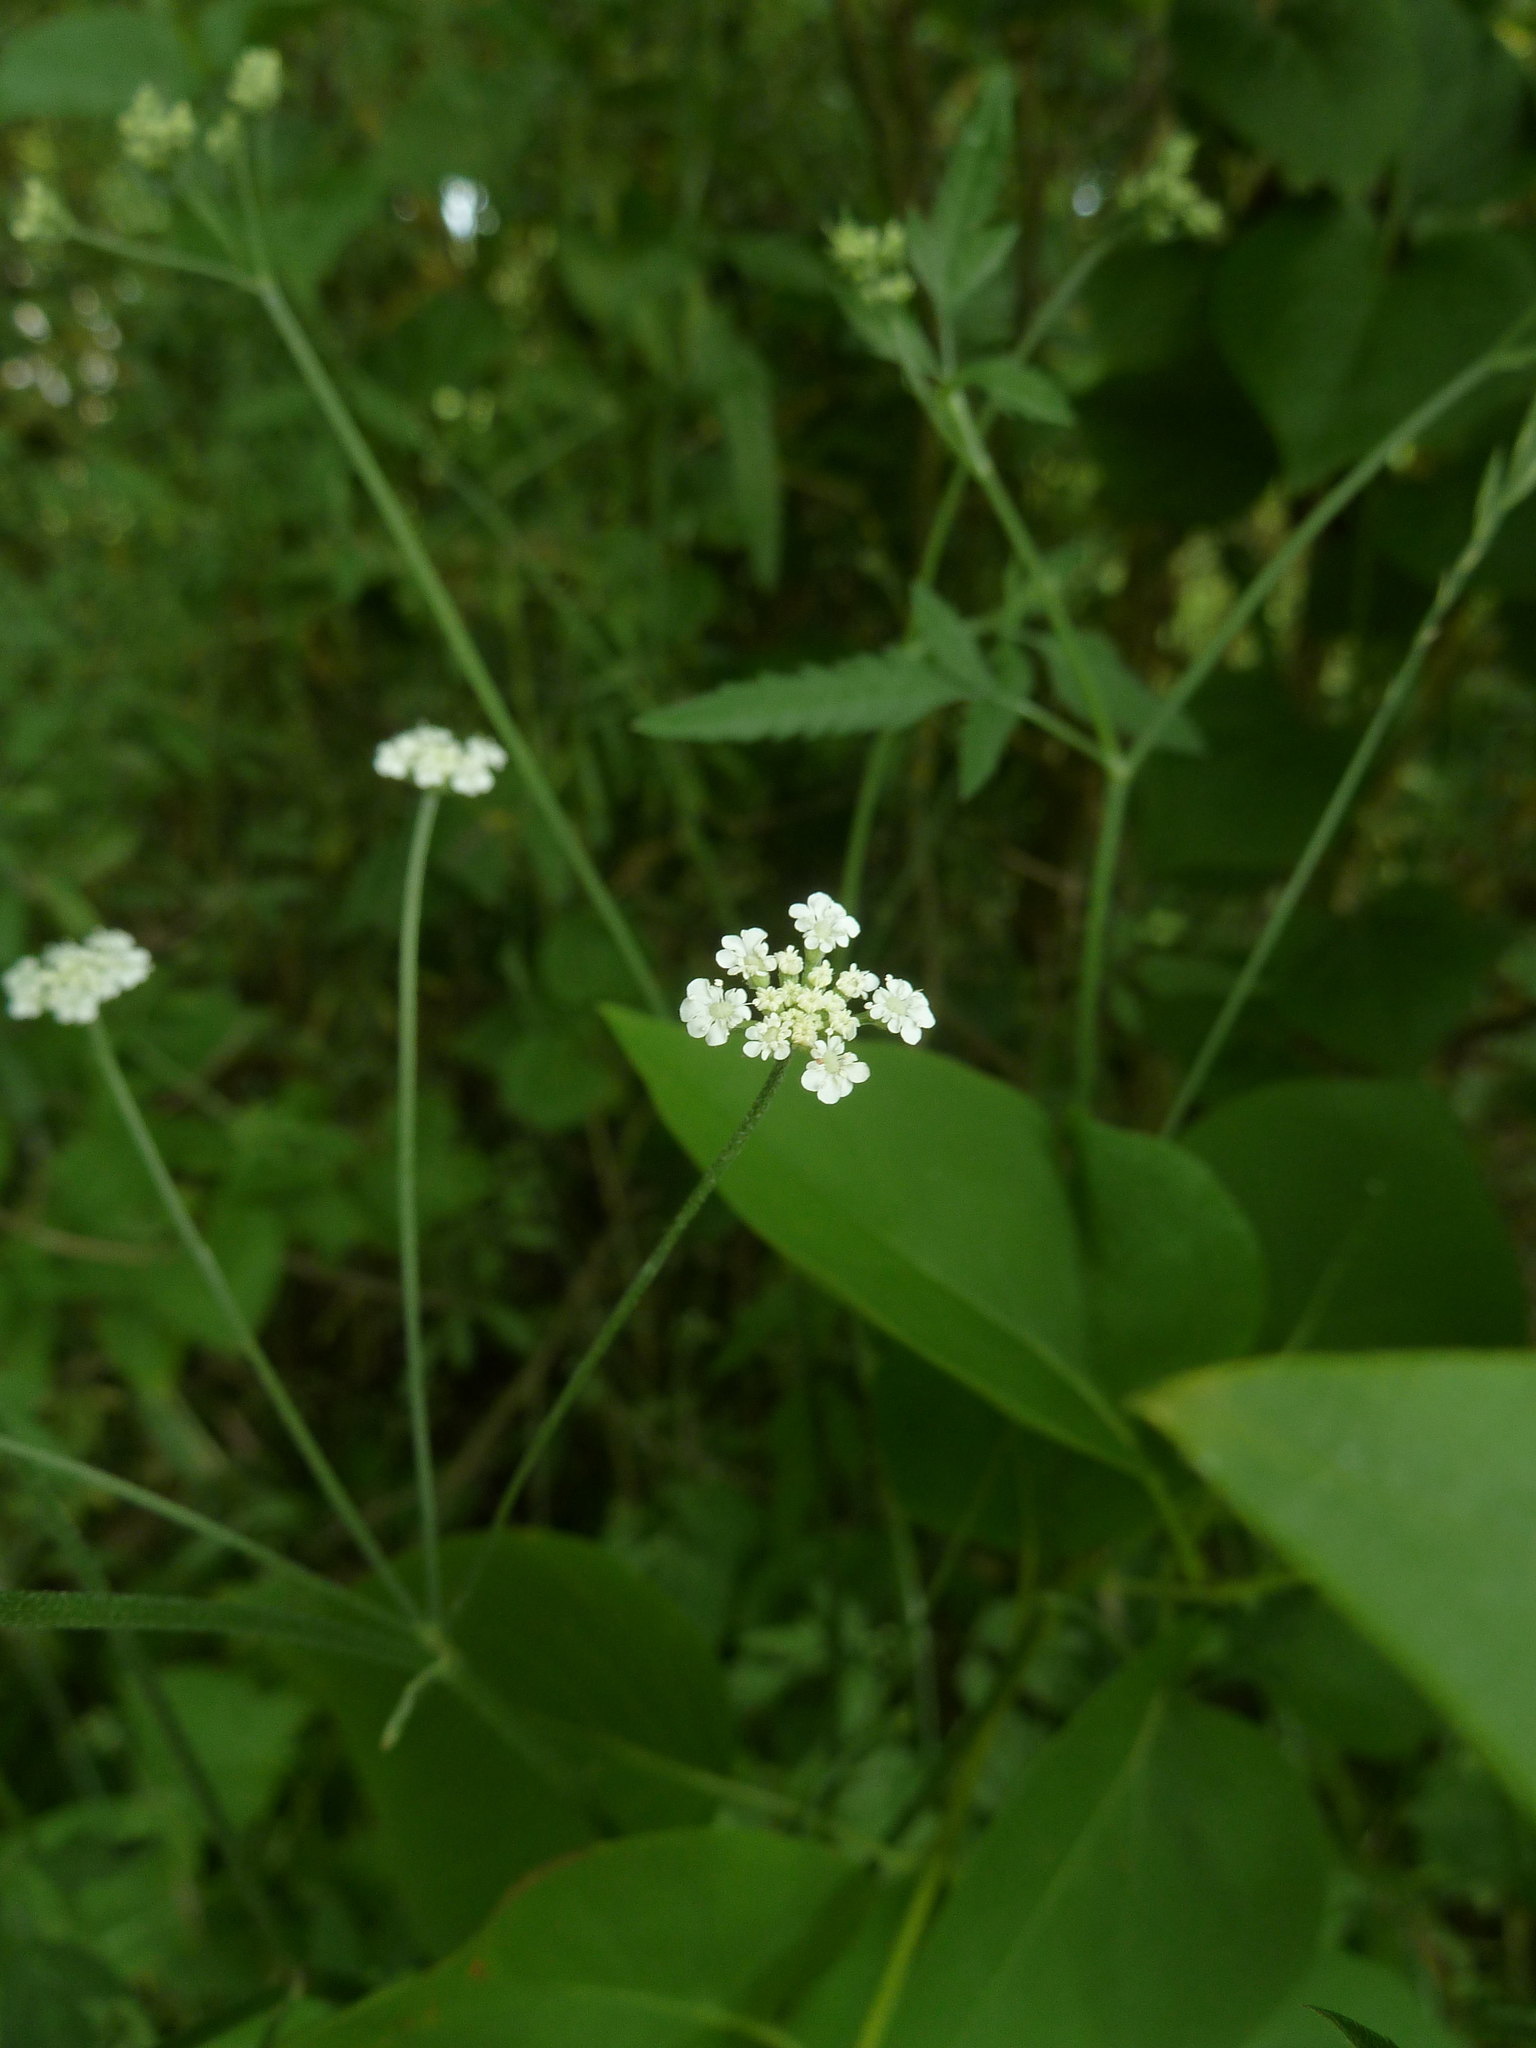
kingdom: Plantae
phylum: Tracheophyta
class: Magnoliopsida
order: Apiales
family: Apiaceae
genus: Torilis
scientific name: Torilis japonica
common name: Upright hedge-parsley
